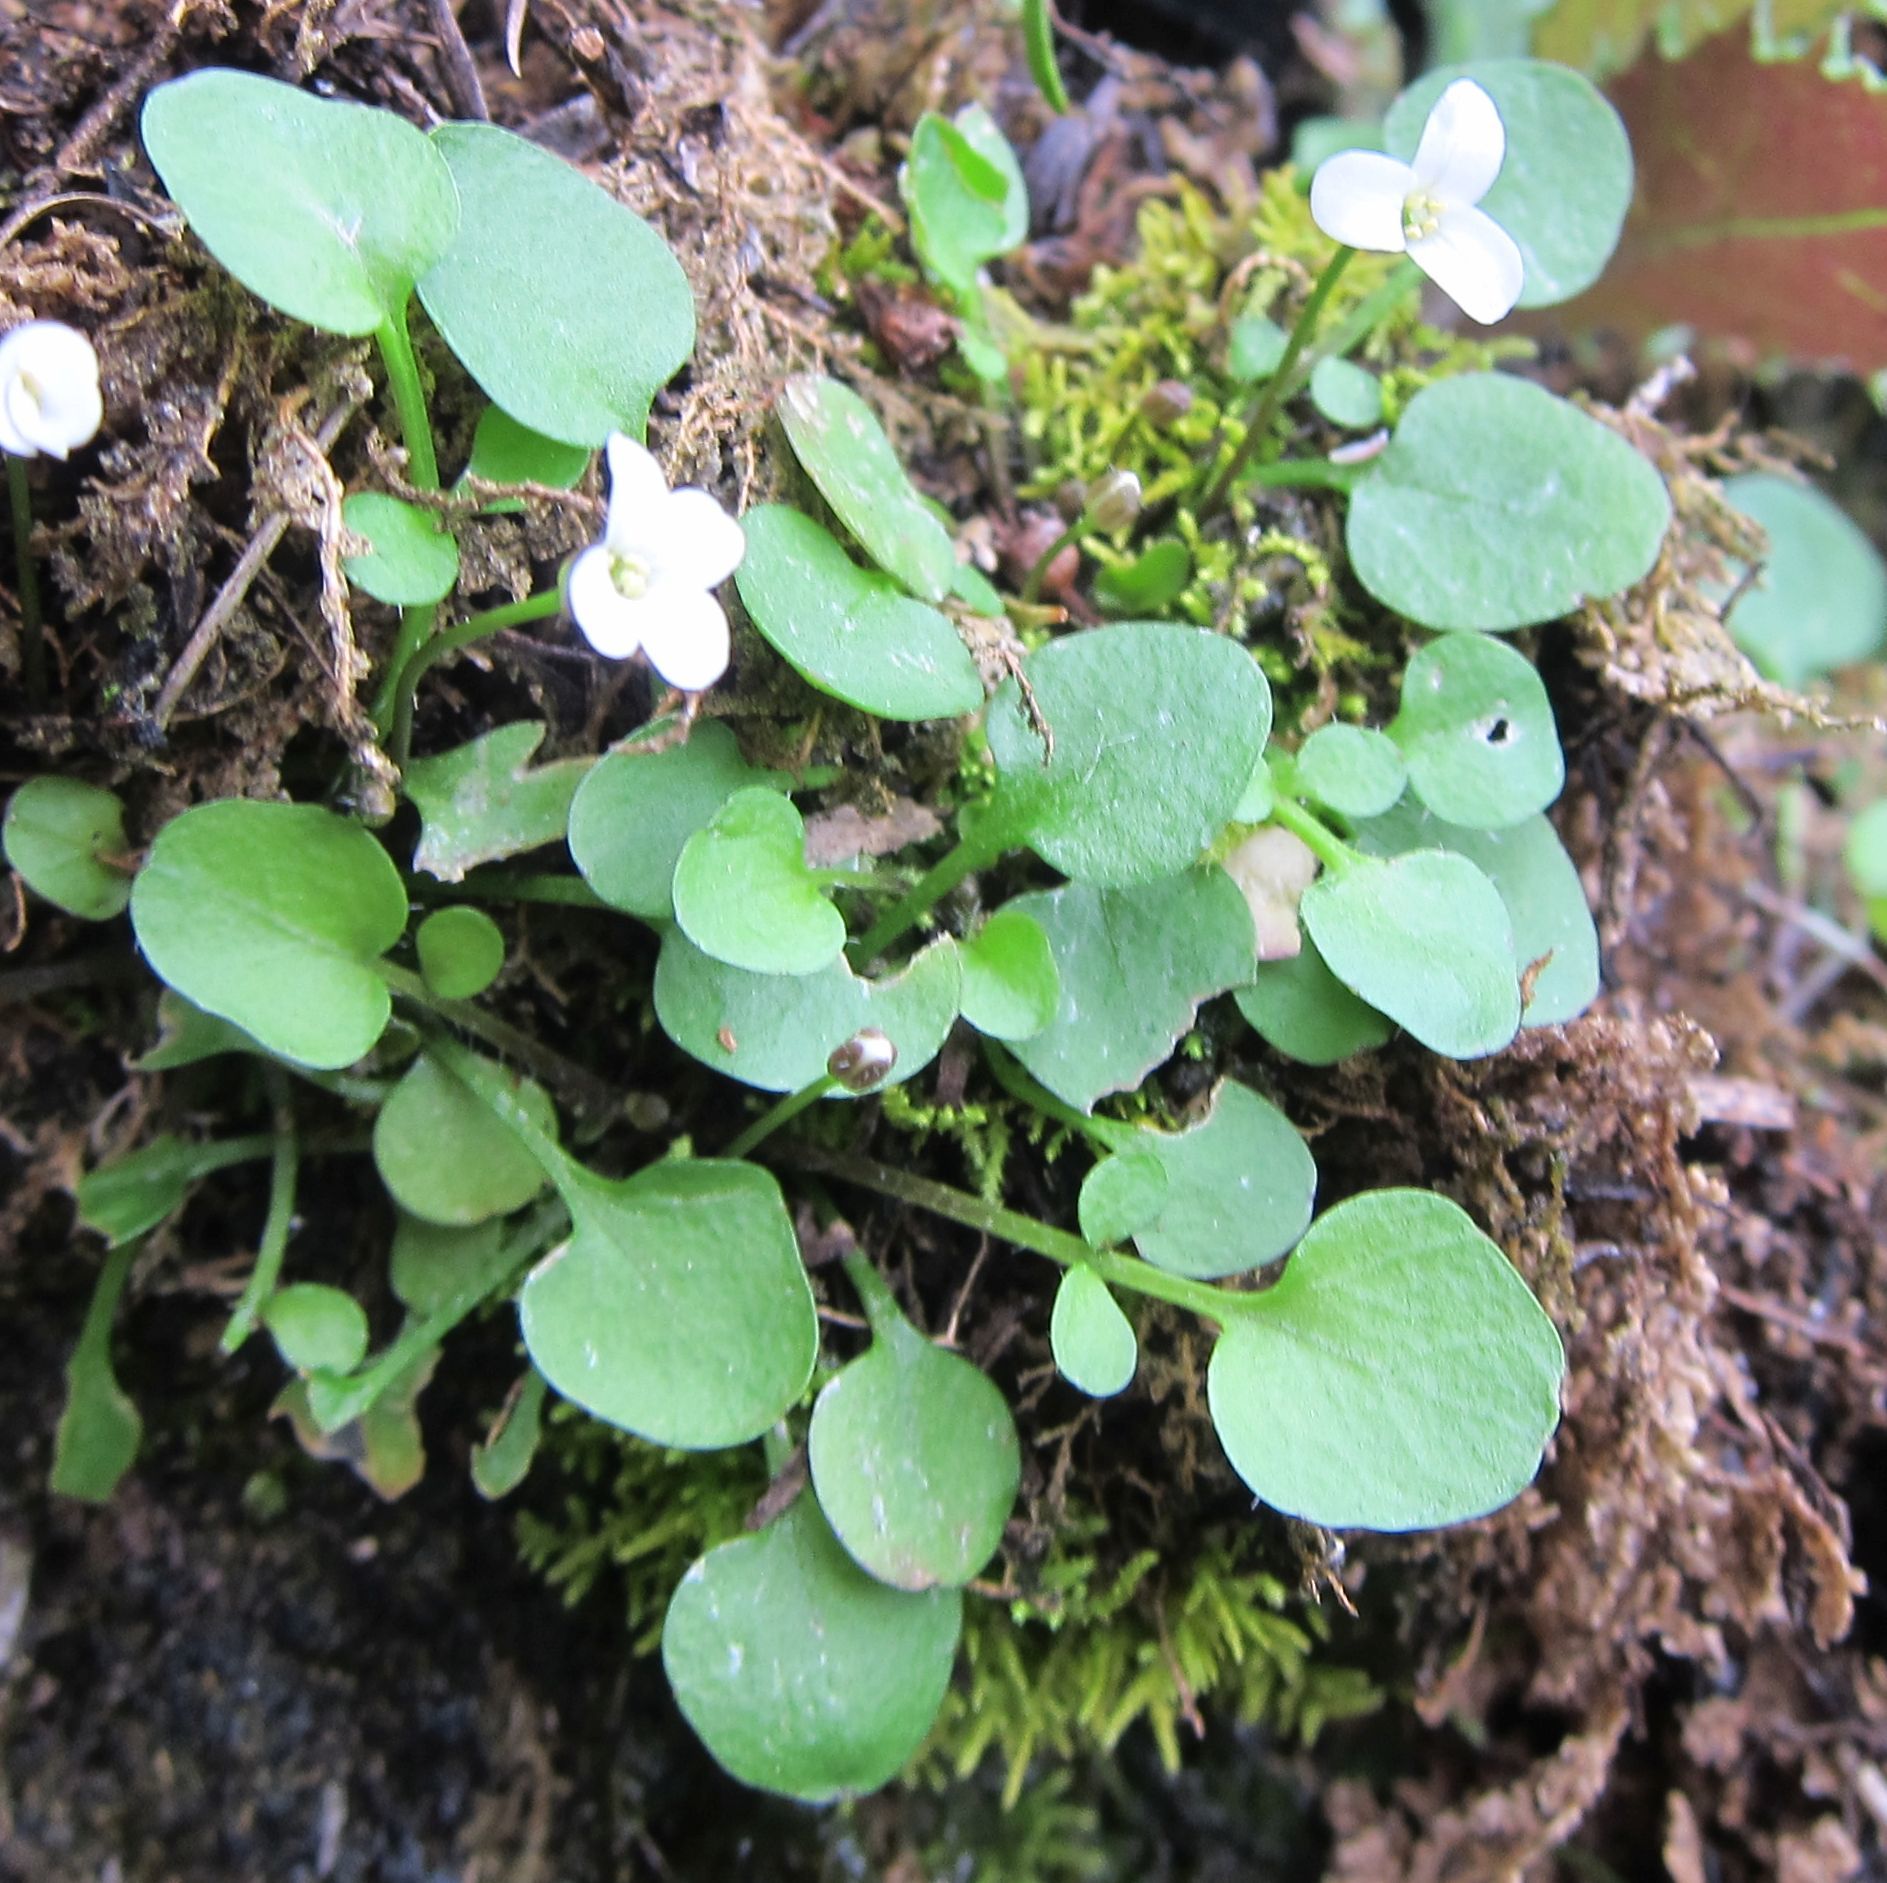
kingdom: Plantae
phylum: Tracheophyta
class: Magnoliopsida
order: Brassicales
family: Brassicaceae
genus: Cardamine
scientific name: Cardamine corymbosa
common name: New zealand bitter-cress
